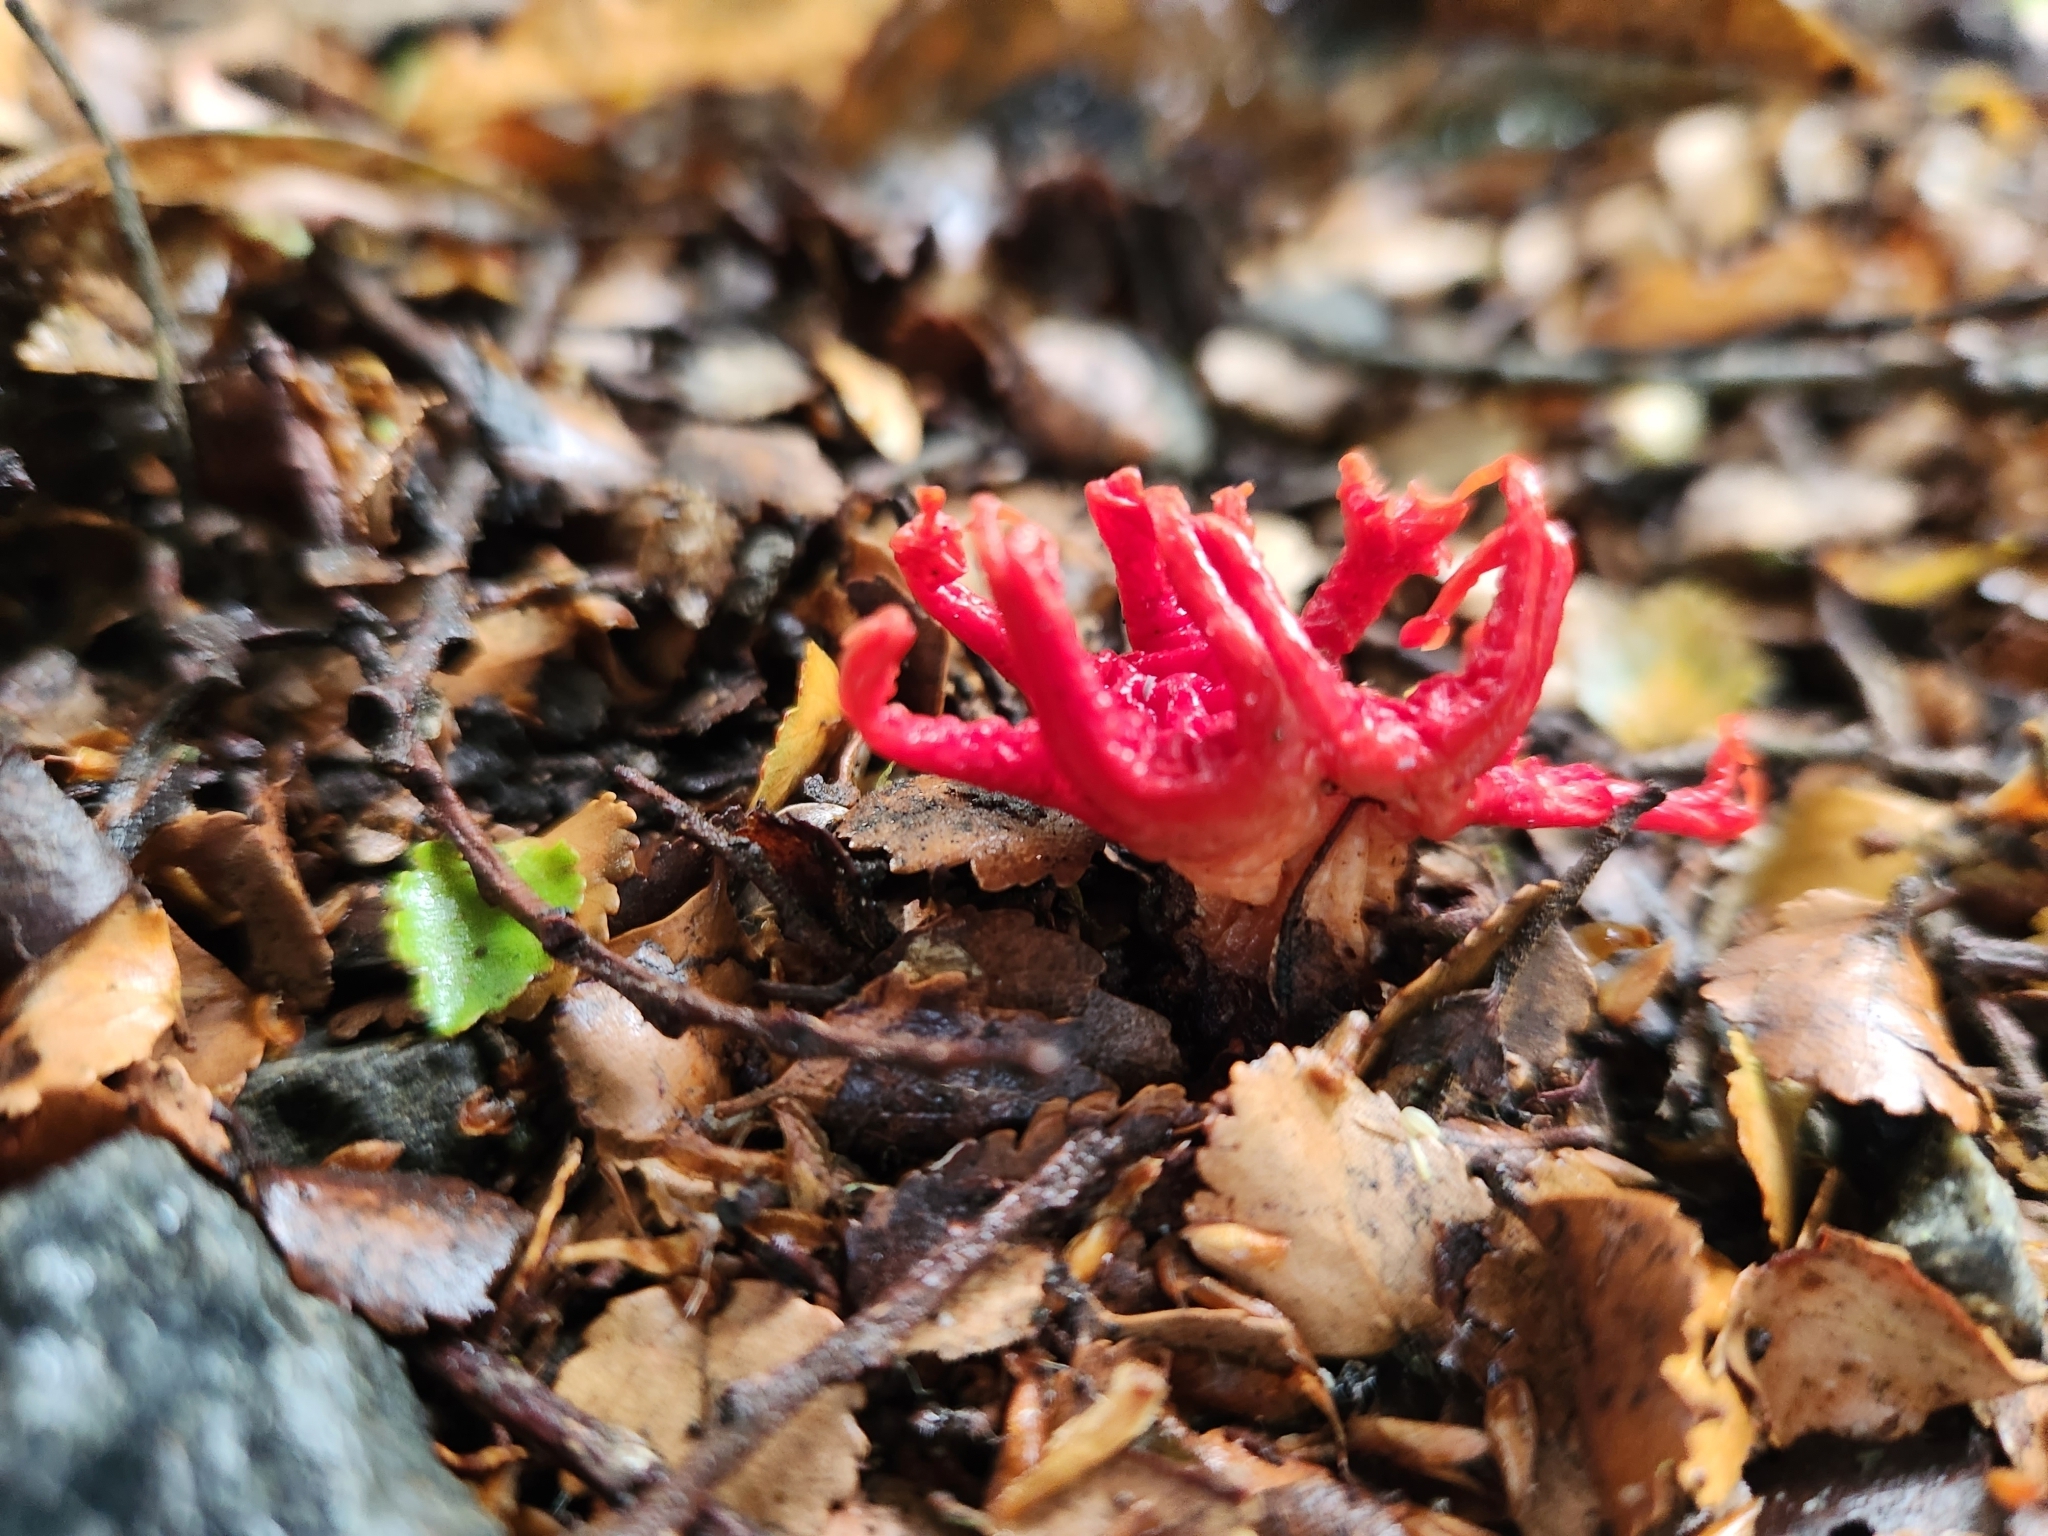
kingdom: Fungi
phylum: Basidiomycota
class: Agaricomycetes
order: Phallales
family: Phallaceae
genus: Aseroe
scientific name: Aseroe rubra
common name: Starfish fungus
